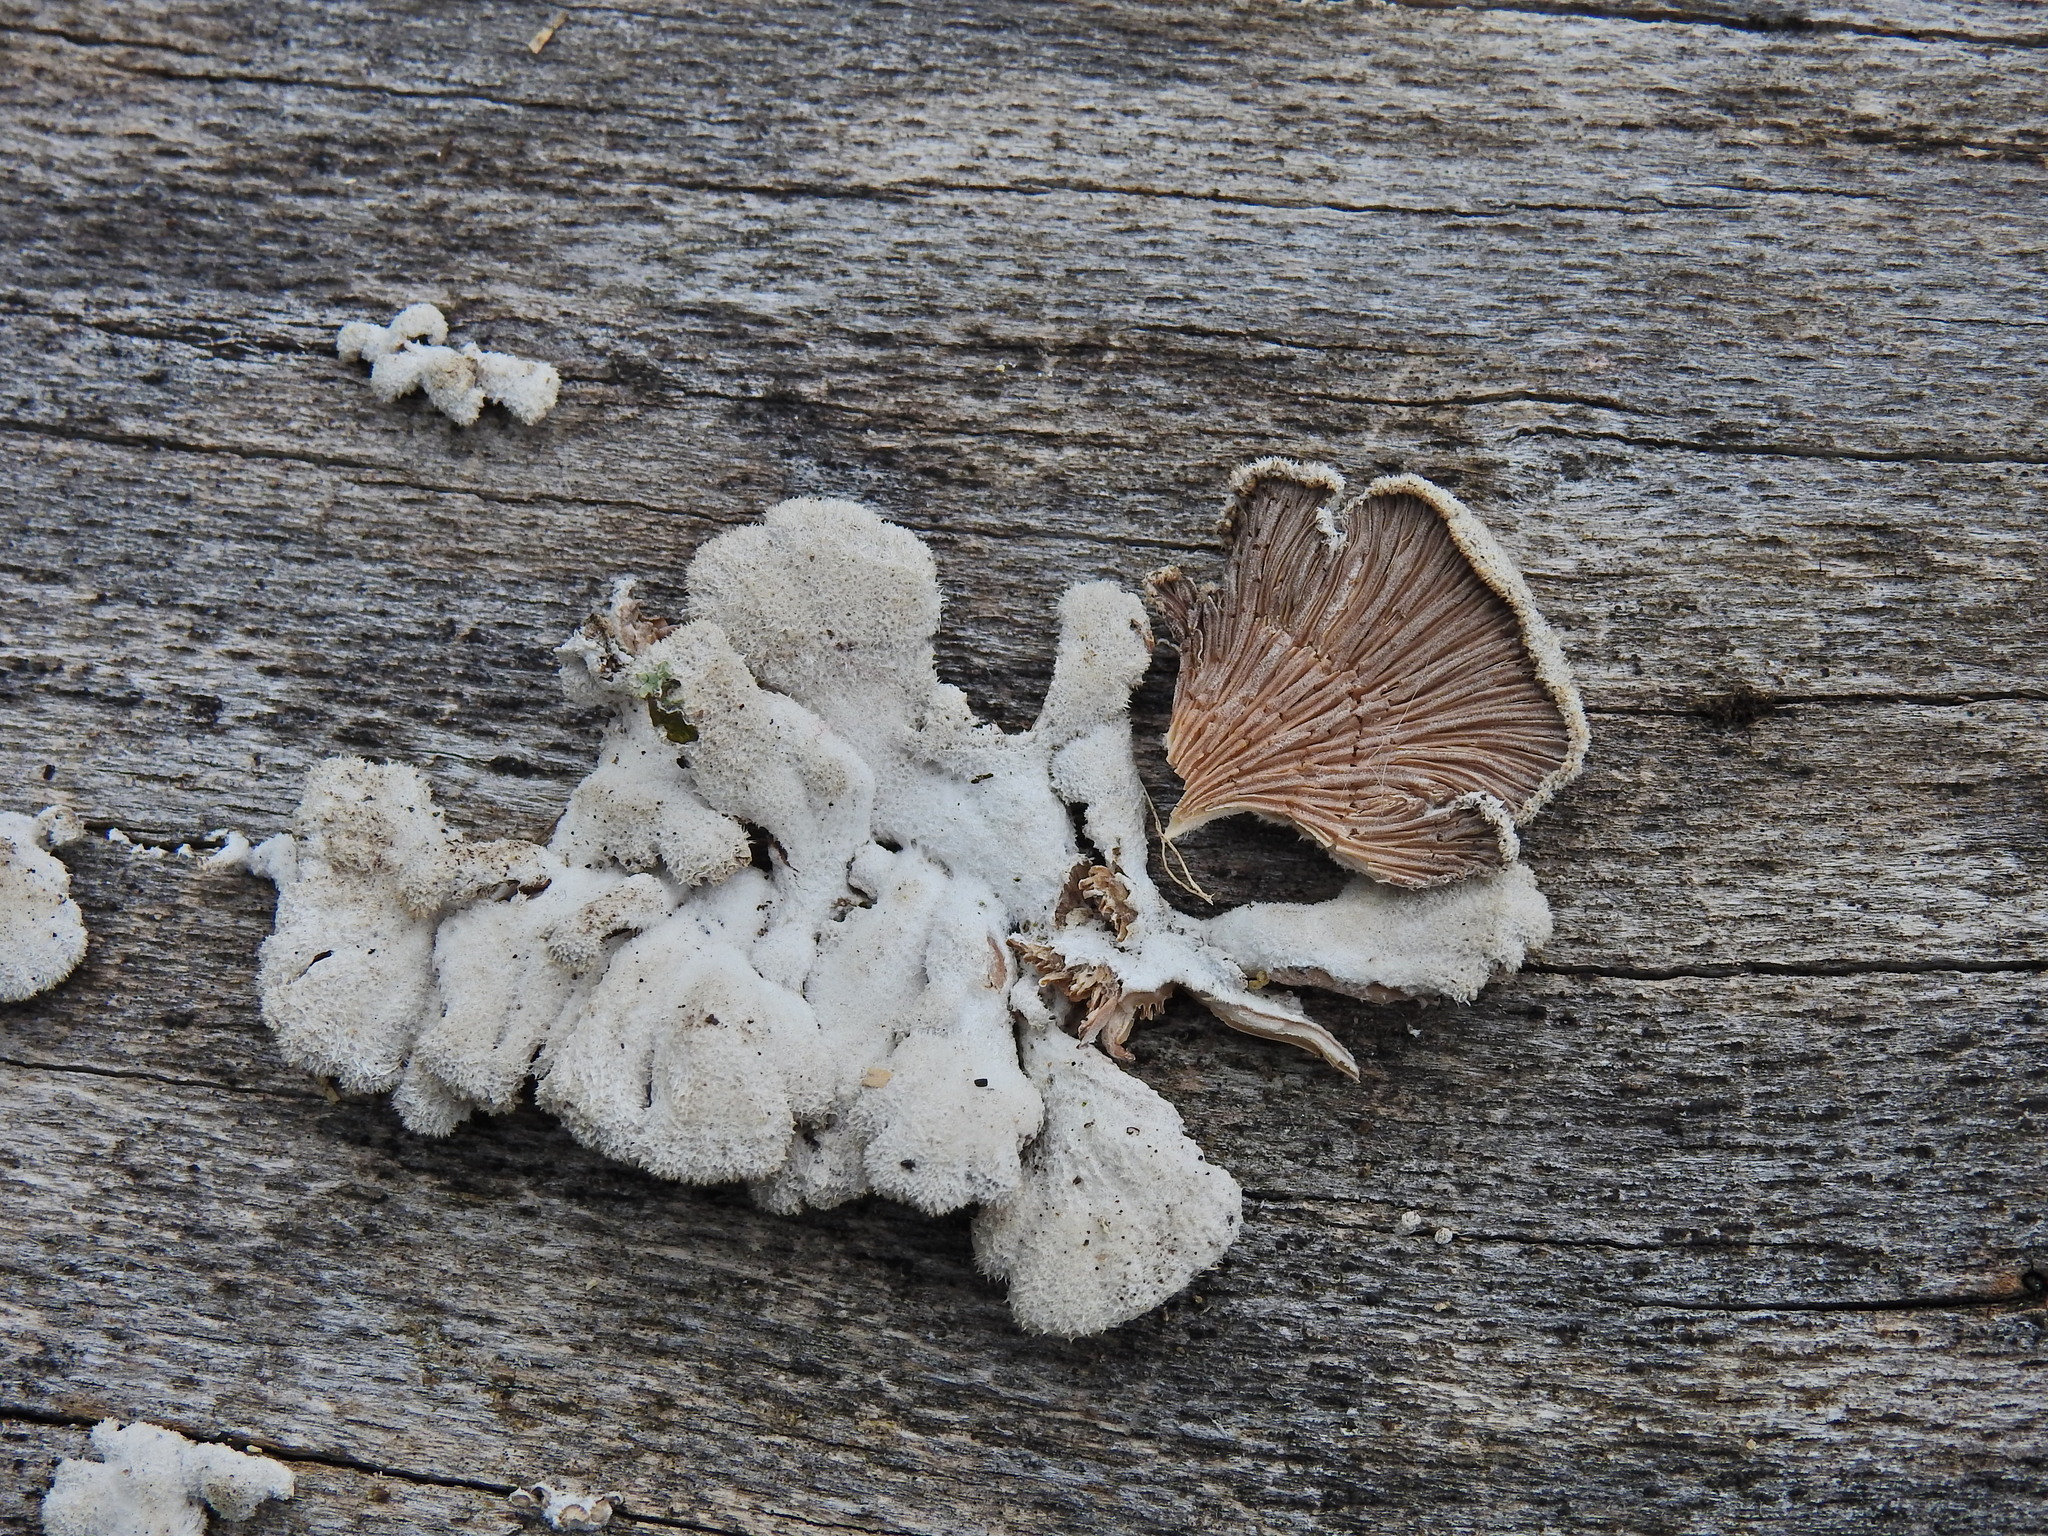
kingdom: Fungi
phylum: Basidiomycota
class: Agaricomycetes
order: Agaricales
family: Schizophyllaceae
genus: Schizophyllum
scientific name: Schizophyllum commune
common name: Common porecrust
